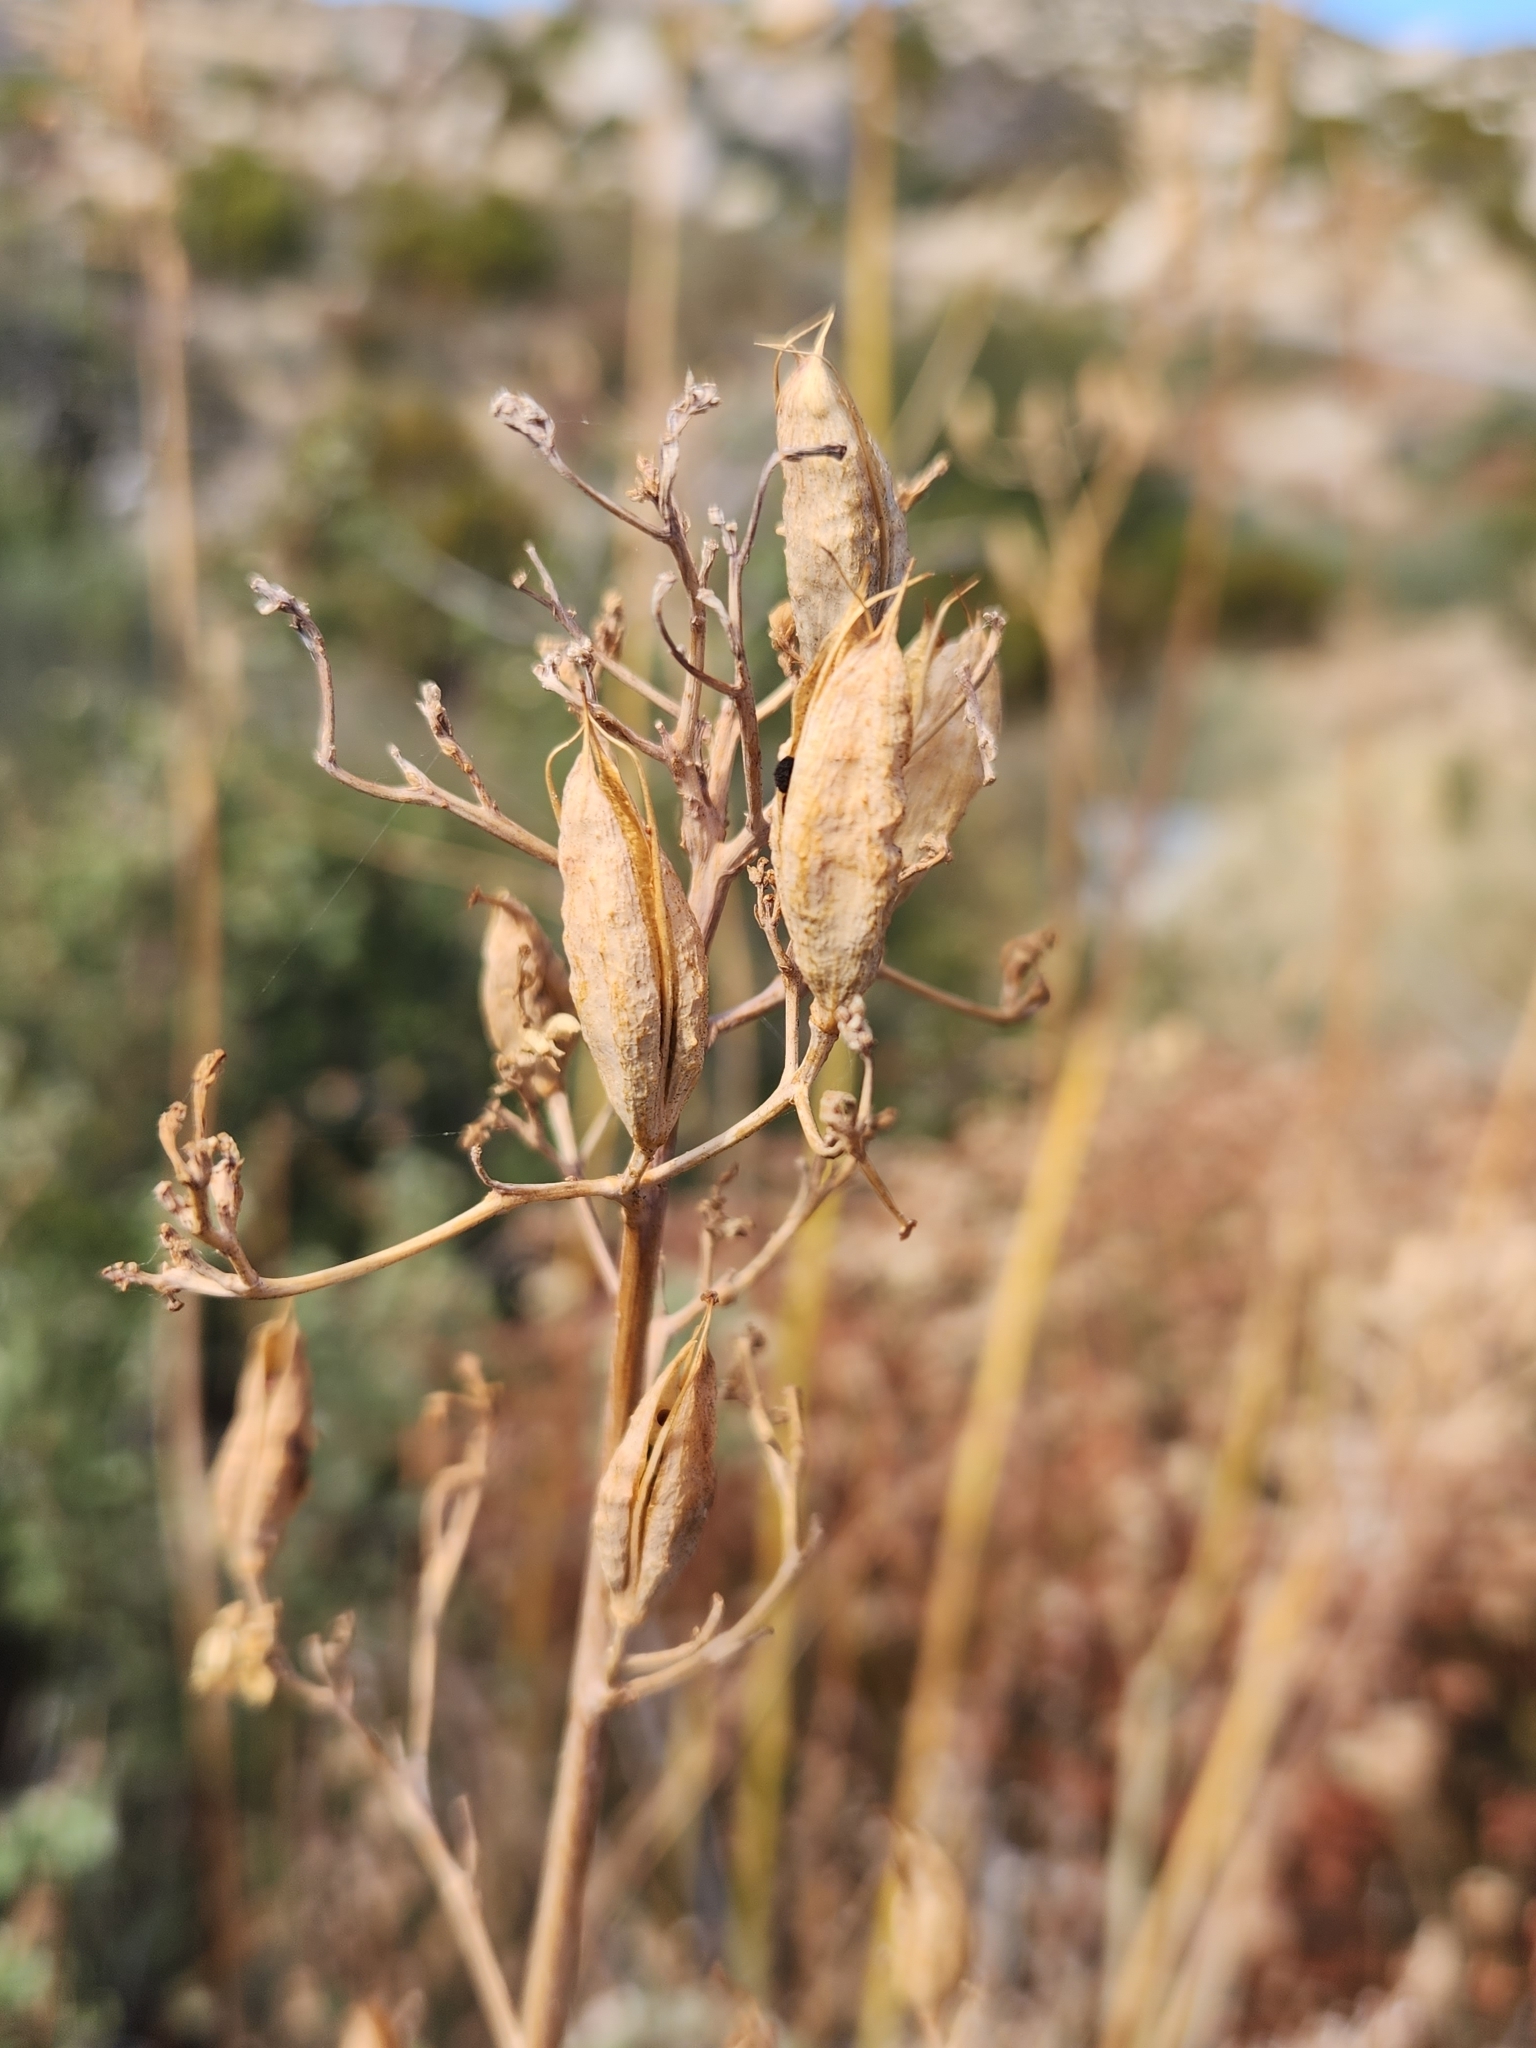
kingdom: Plantae
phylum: Tracheophyta
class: Magnoliopsida
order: Ranunculales
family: Papaveraceae
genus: Ehrendorferia
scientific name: Ehrendorferia chrysantha
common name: Golden eardrops
